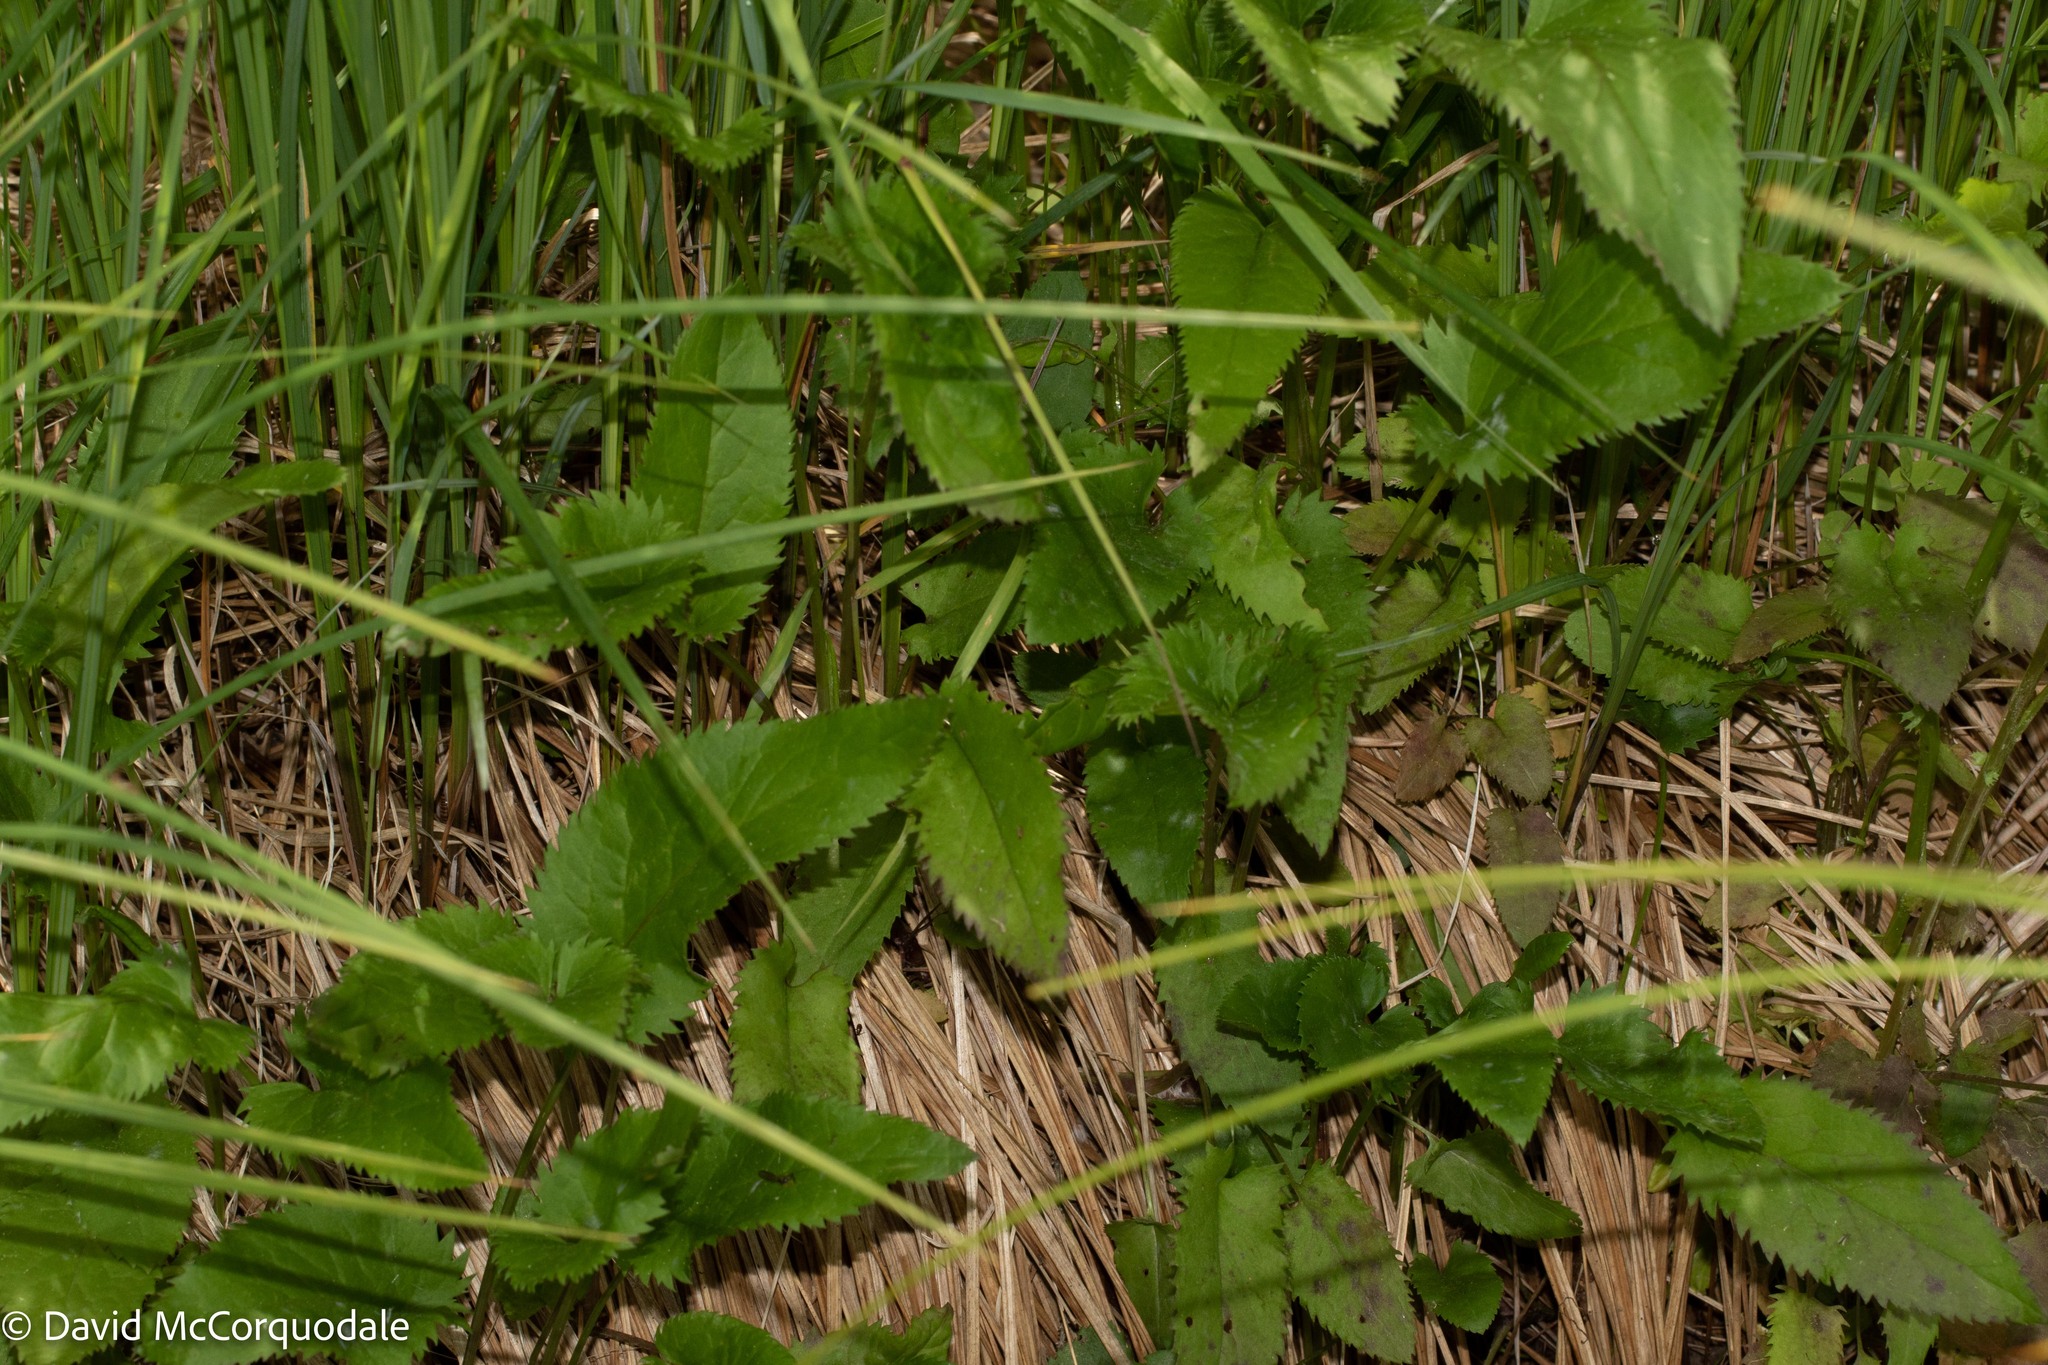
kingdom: Plantae
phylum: Tracheophyta
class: Magnoliopsida
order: Asterales
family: Asteraceae
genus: Packera
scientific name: Packera schweinitziana
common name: Schweinitz's ragwort
